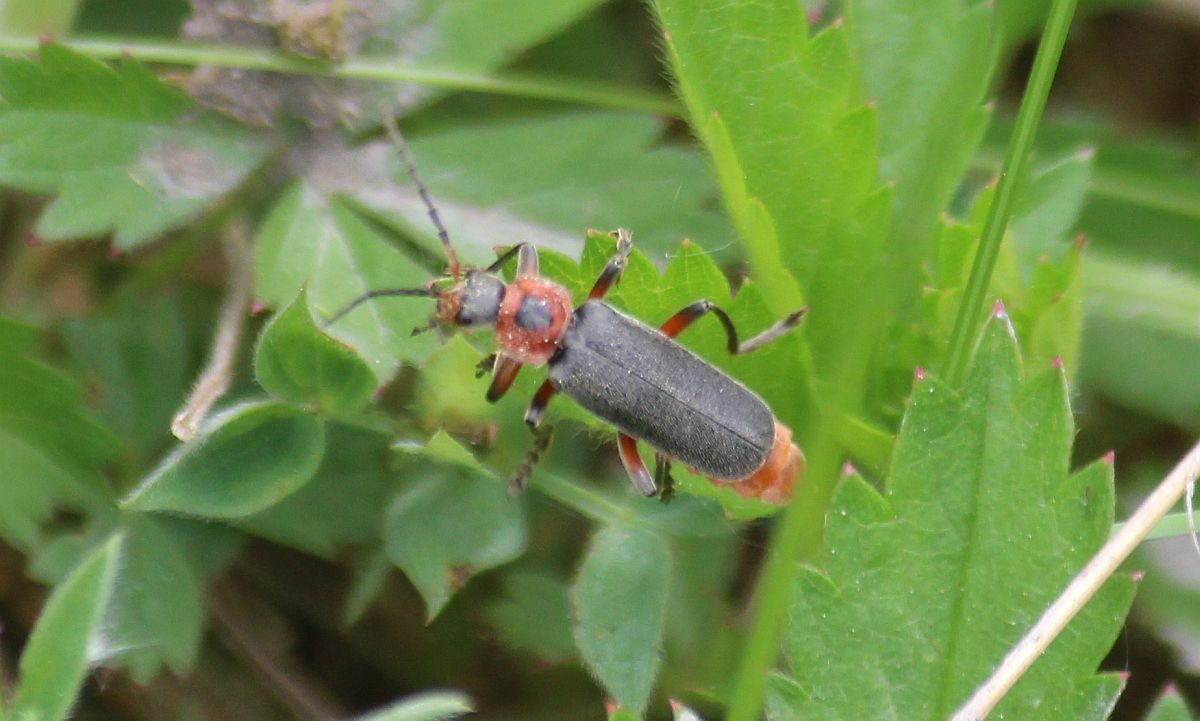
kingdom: Animalia
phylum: Arthropoda
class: Insecta
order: Coleoptera
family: Cantharidae
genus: Cantharis
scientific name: Cantharis rustica
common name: Soldier beetle
